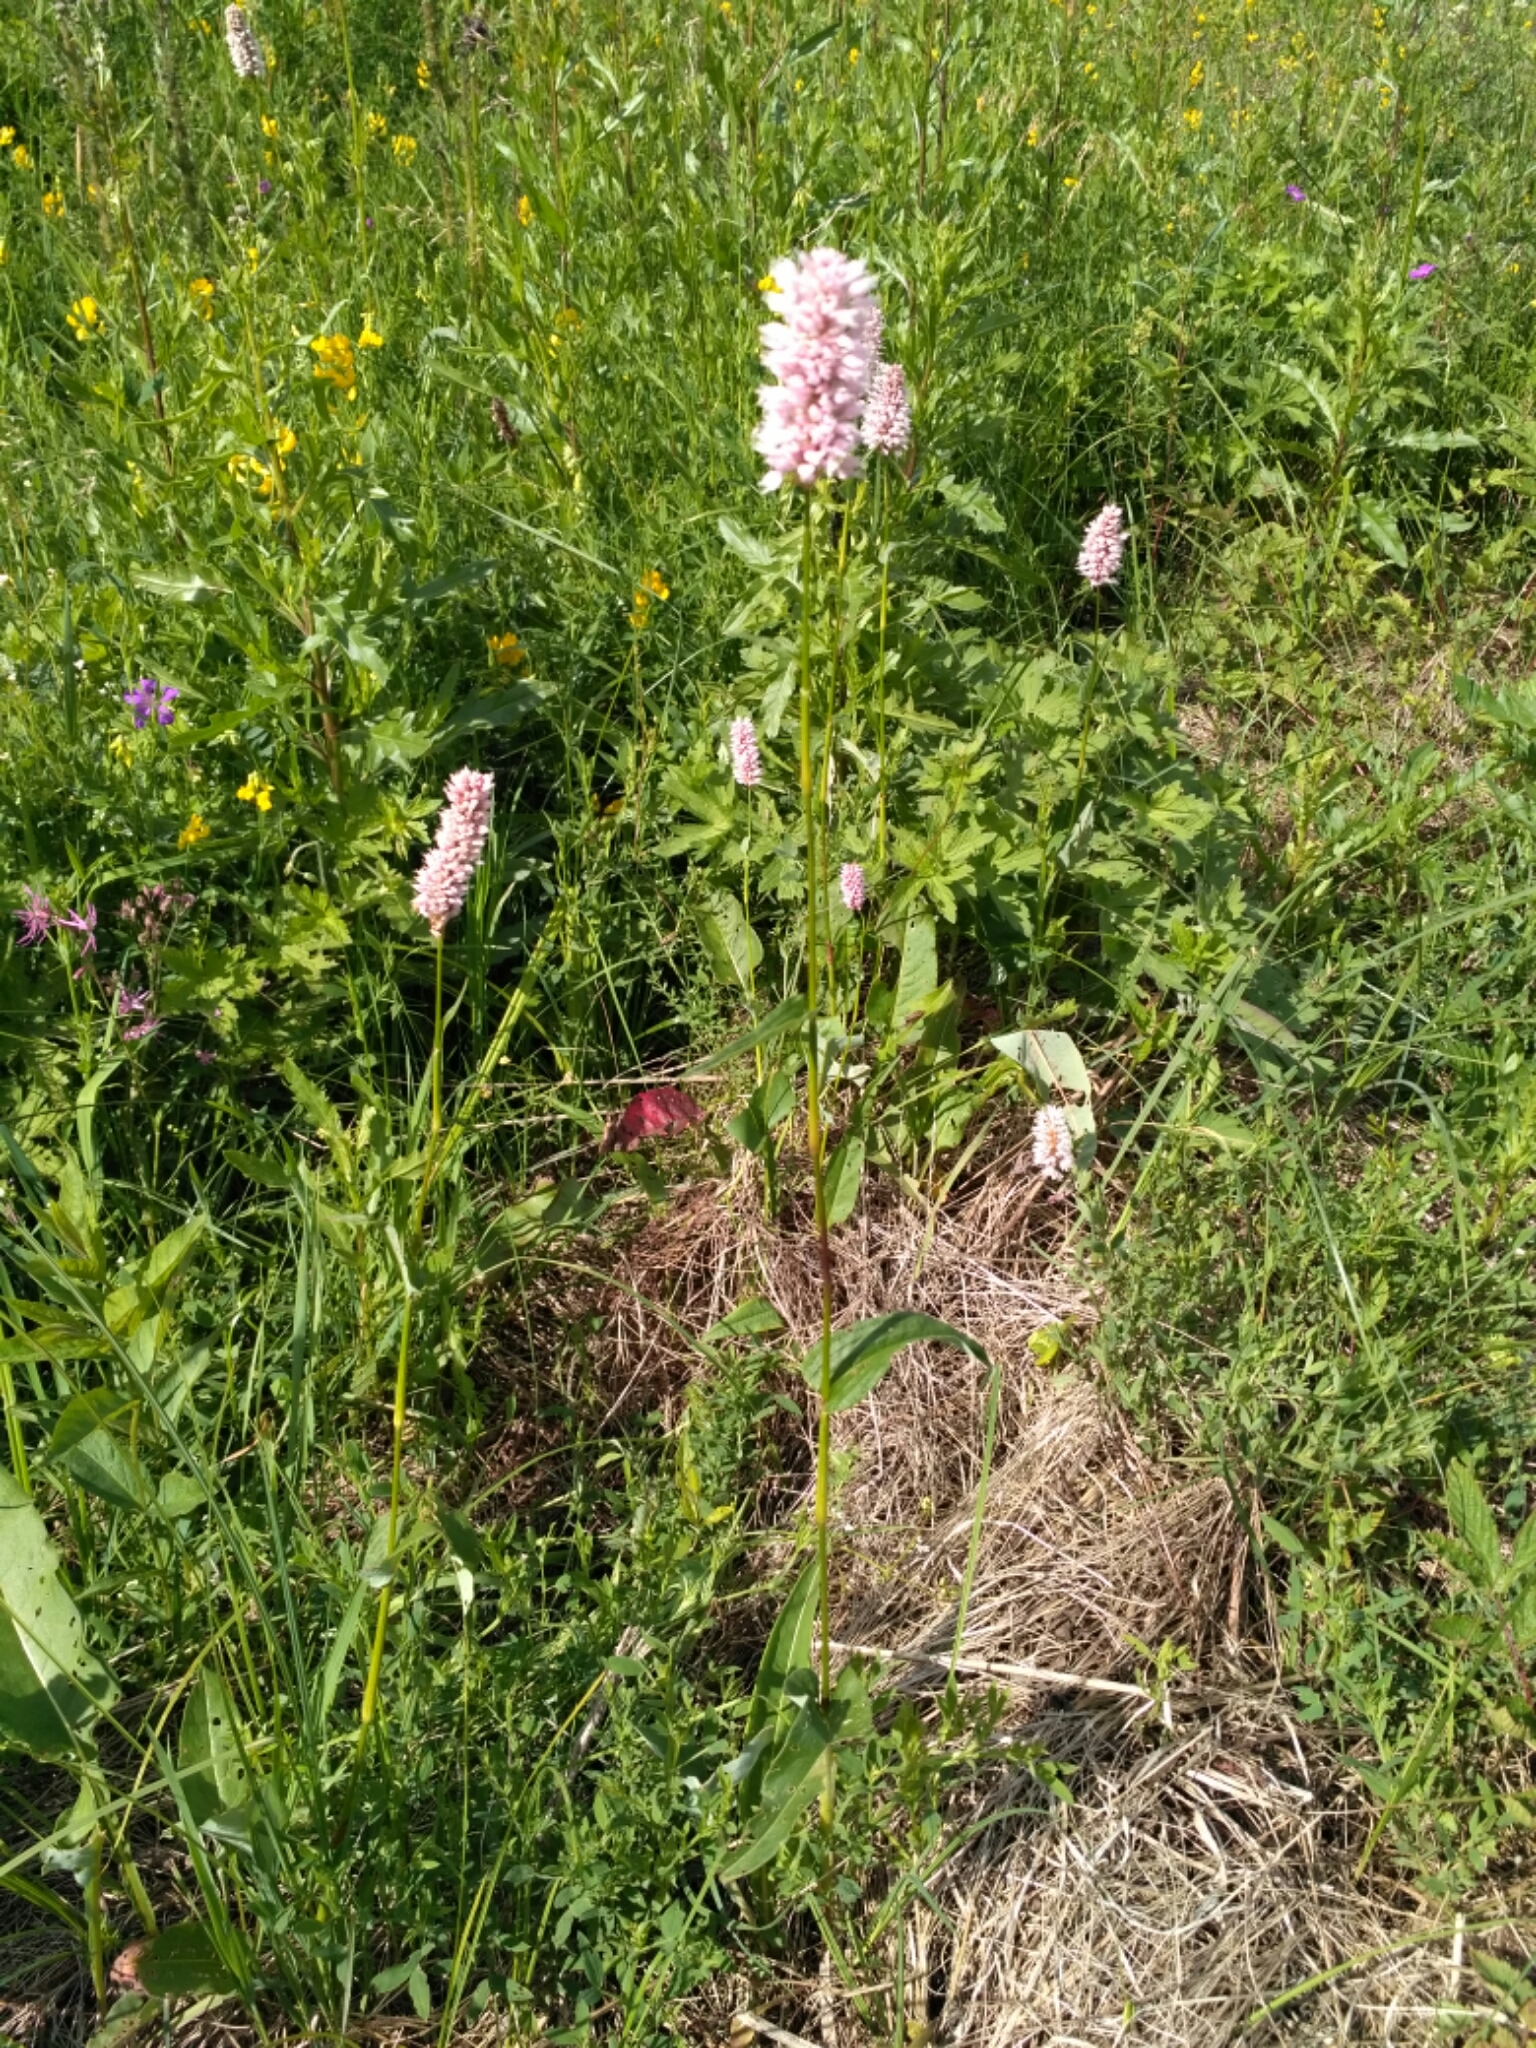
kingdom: Plantae
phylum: Tracheophyta
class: Magnoliopsida
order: Caryophyllales
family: Polygonaceae
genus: Bistorta
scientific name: Bistorta officinalis
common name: Common bistort
